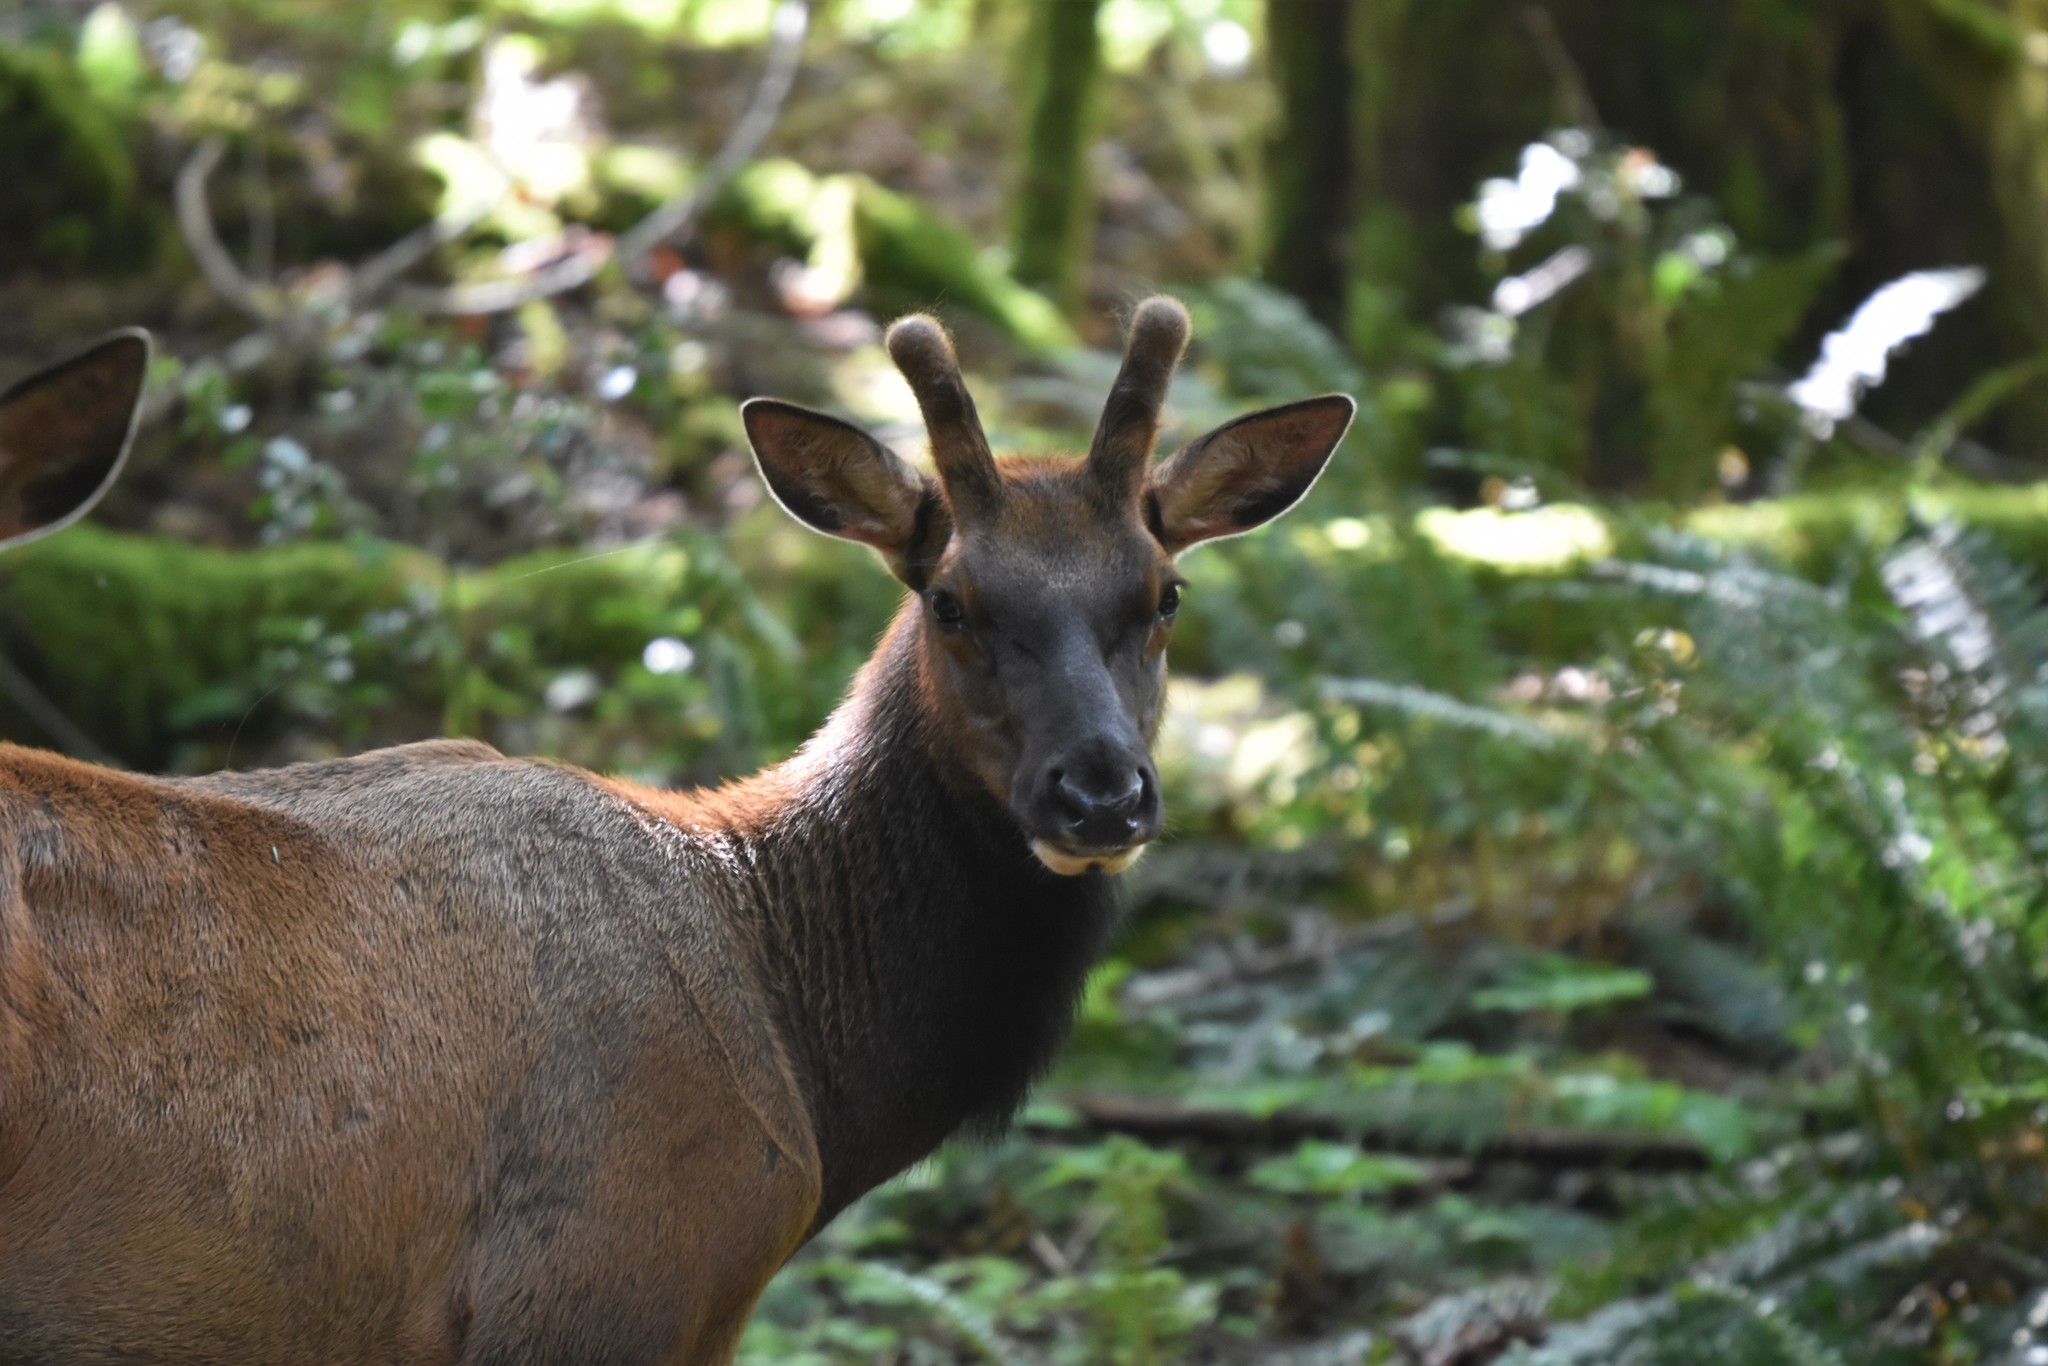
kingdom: Animalia
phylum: Chordata
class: Mammalia
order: Artiodactyla
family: Cervidae
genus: Cervus
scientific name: Cervus elaphus
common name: Red deer
